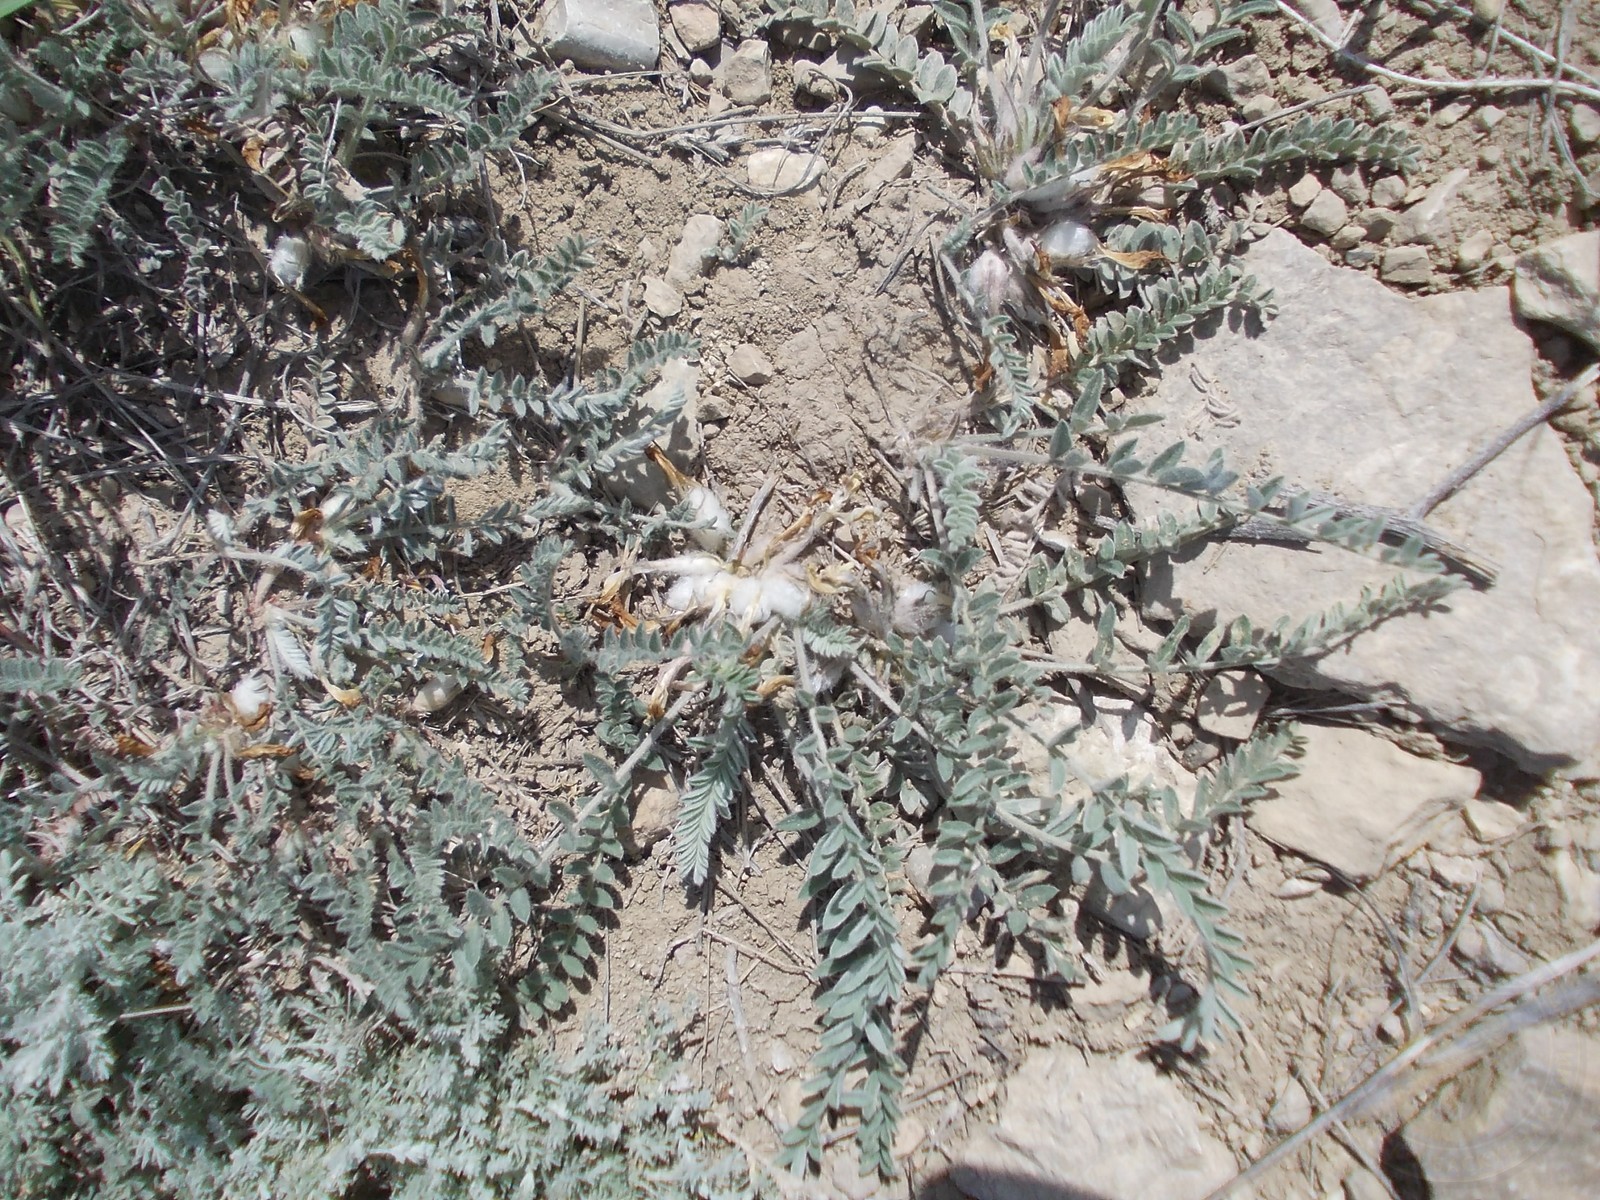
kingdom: Plantae
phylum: Tracheophyta
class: Magnoliopsida
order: Fabales
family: Fabaceae
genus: Astragalus
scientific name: Astragalus testiculatus
